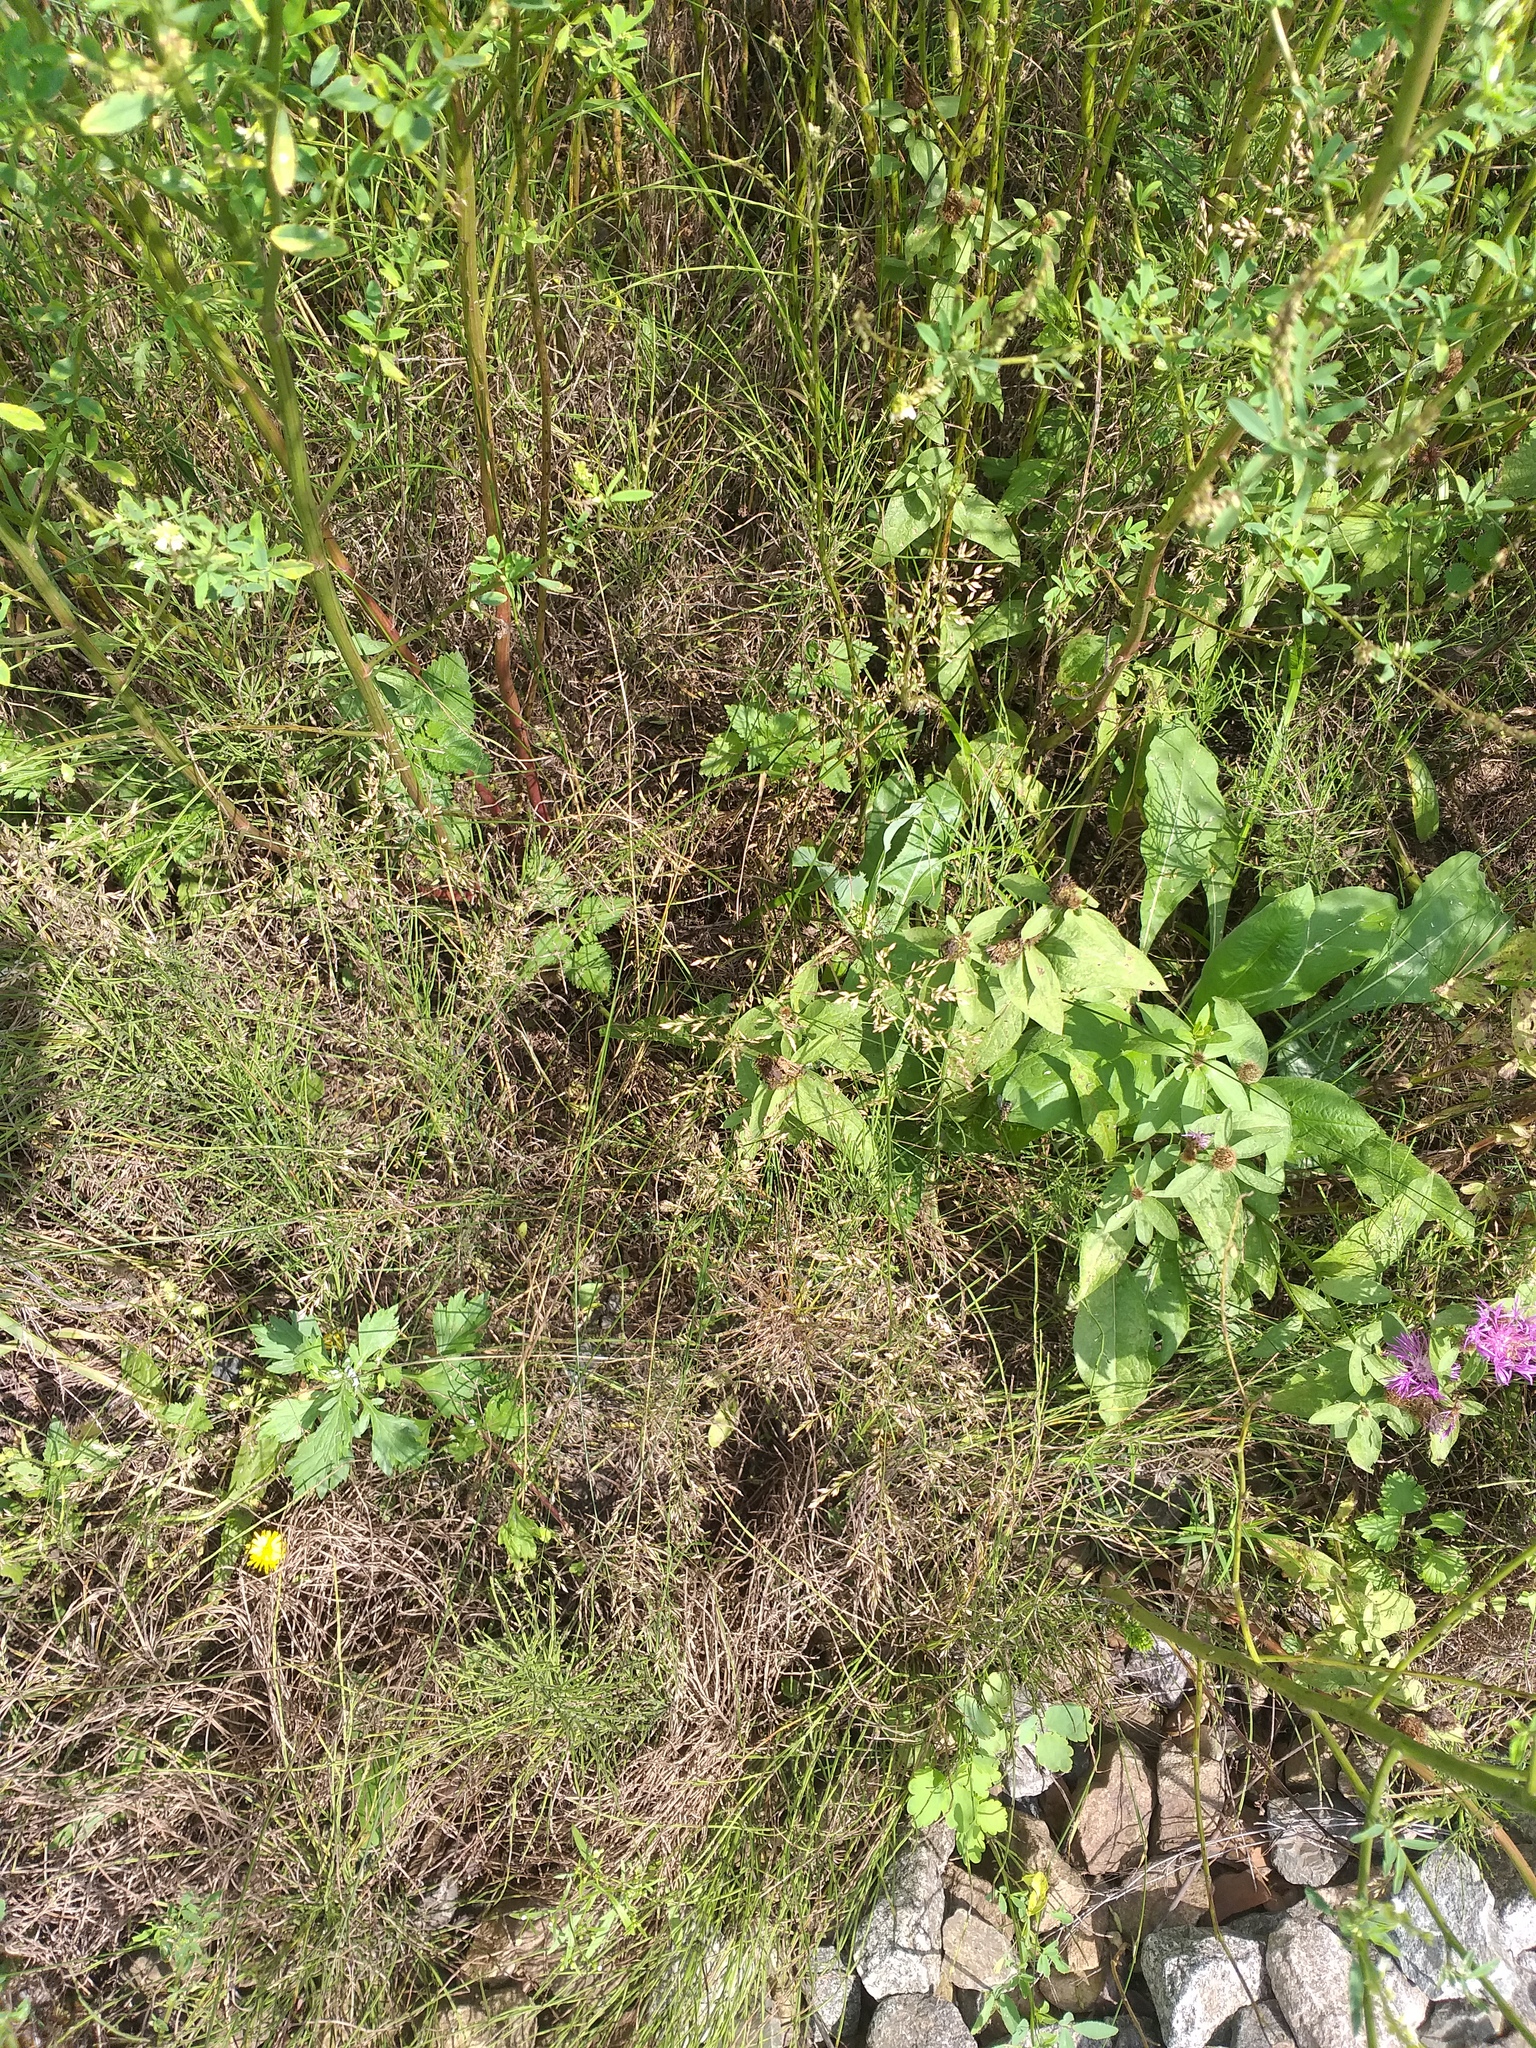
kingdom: Plantae
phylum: Tracheophyta
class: Magnoliopsida
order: Asterales
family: Asteraceae
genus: Centaurea
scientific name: Centaurea pseudophrygia
